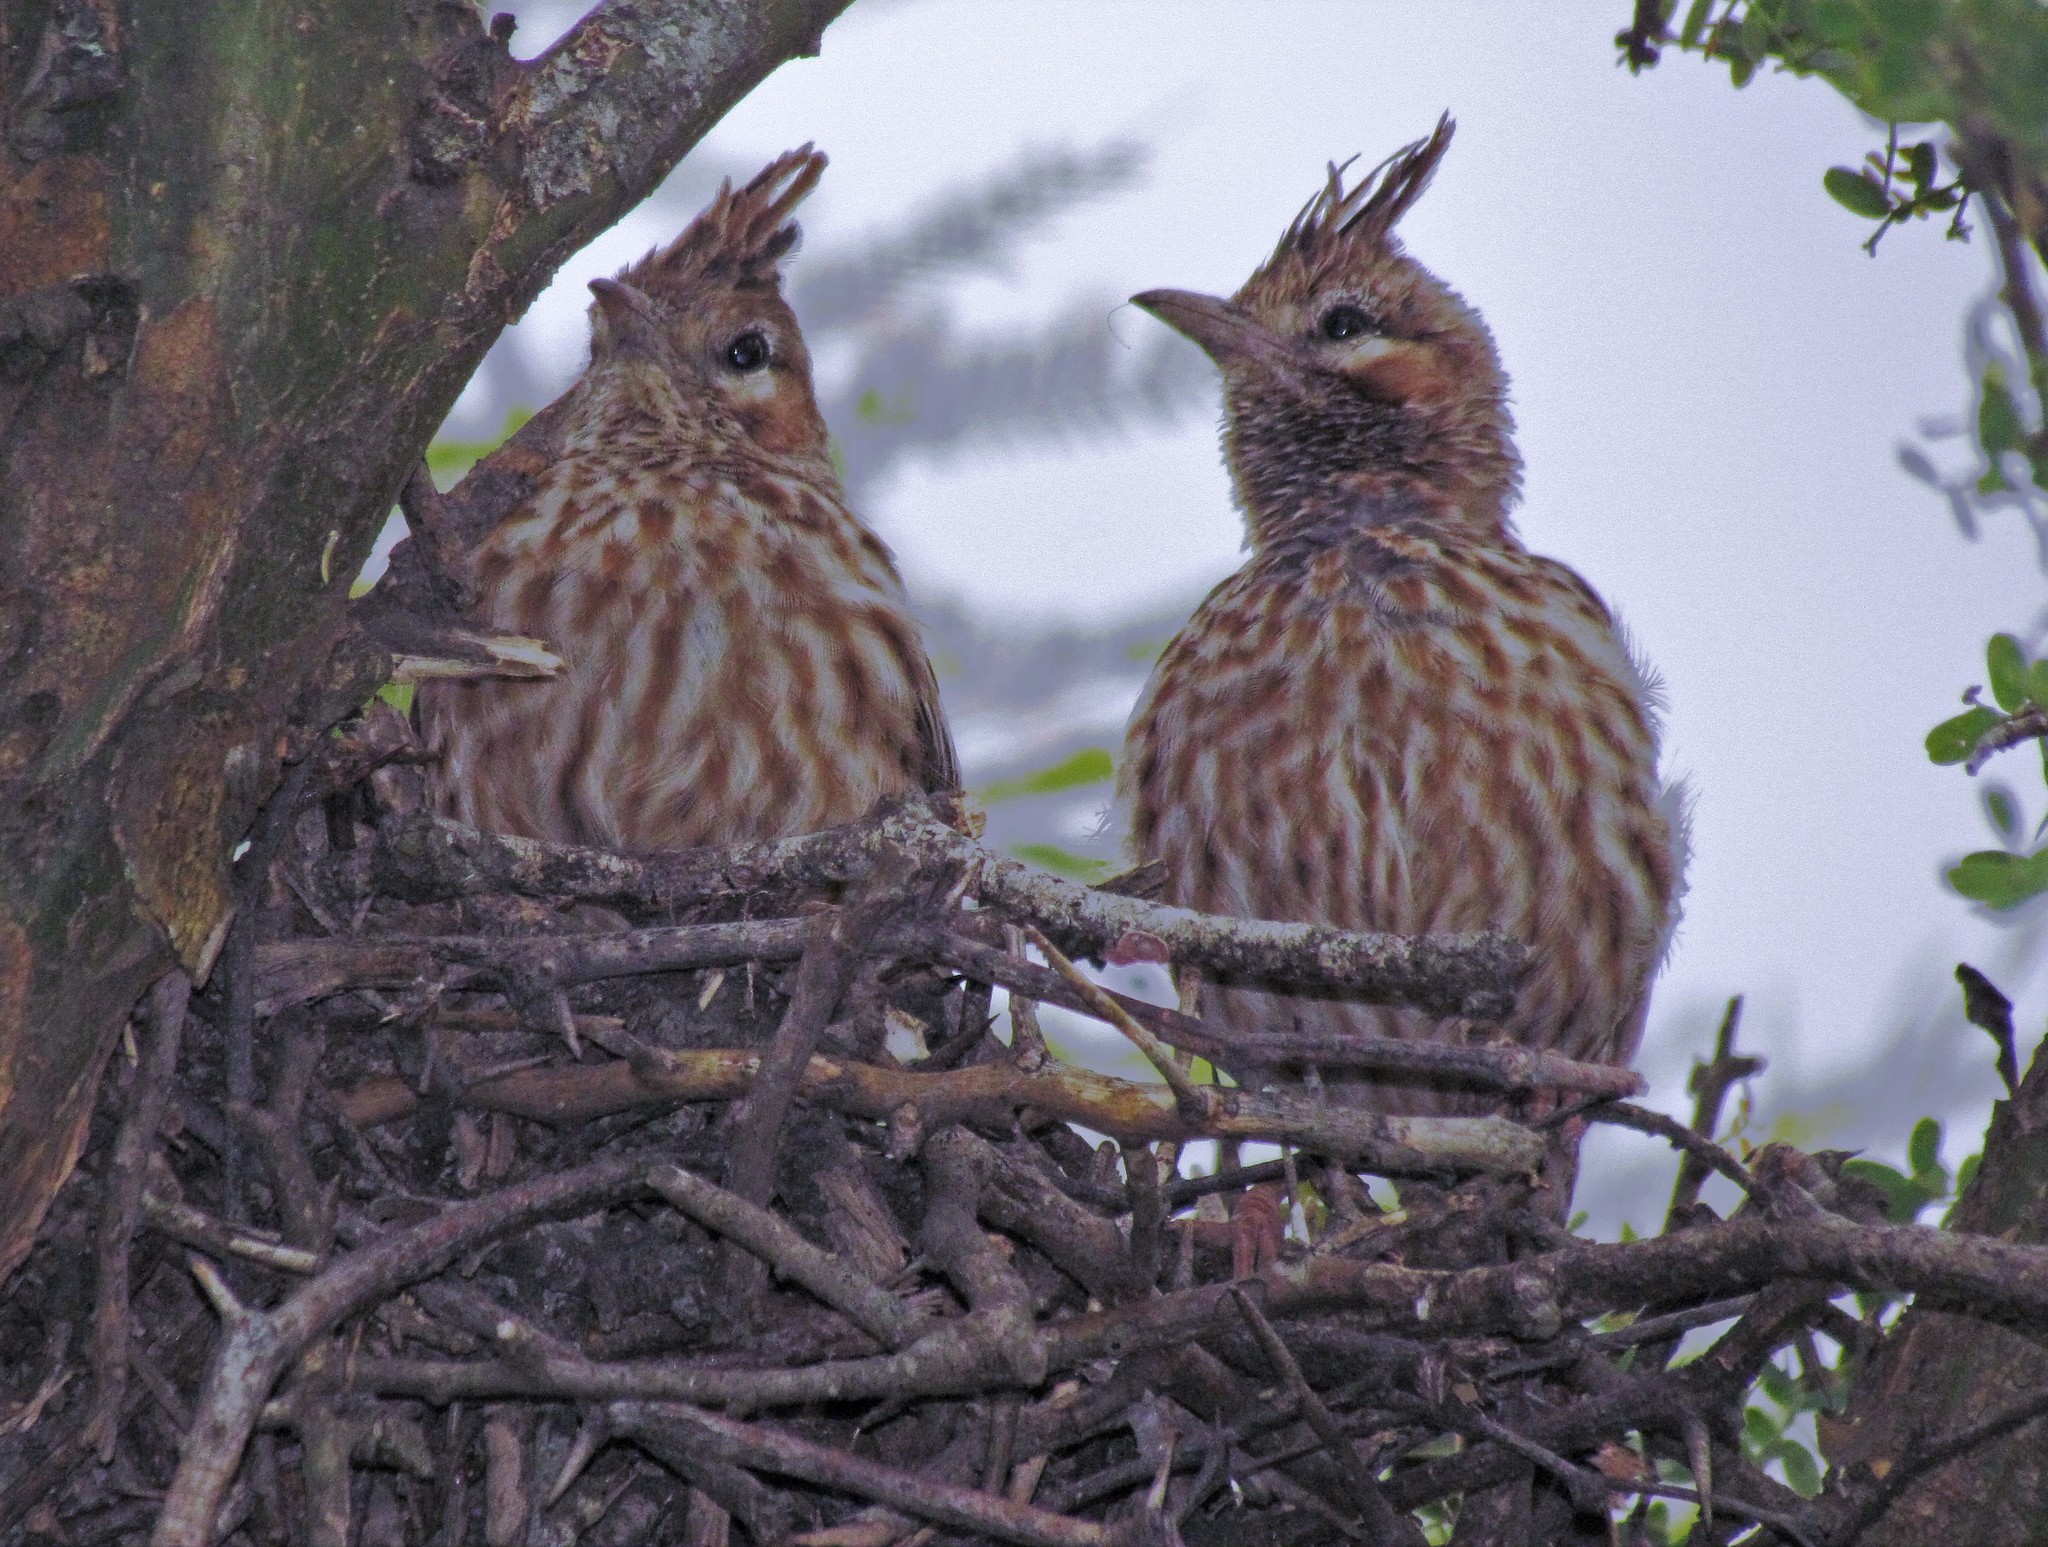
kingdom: Animalia
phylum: Chordata
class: Aves
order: Passeriformes
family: Furnariidae
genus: Coryphistera
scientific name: Coryphistera alaudina
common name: Lark-like brushrunner
